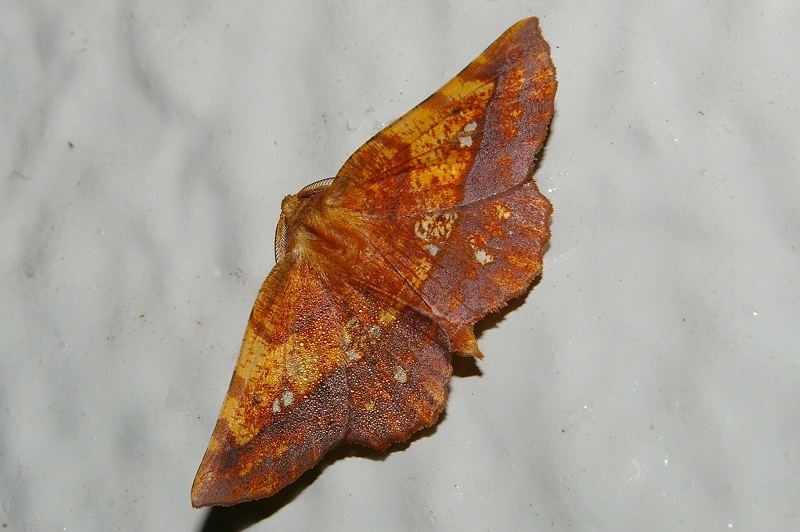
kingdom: Animalia
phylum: Arthropoda
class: Insecta
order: Lepidoptera
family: Geometridae
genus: Garaeus
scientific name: Garaeus specularis
